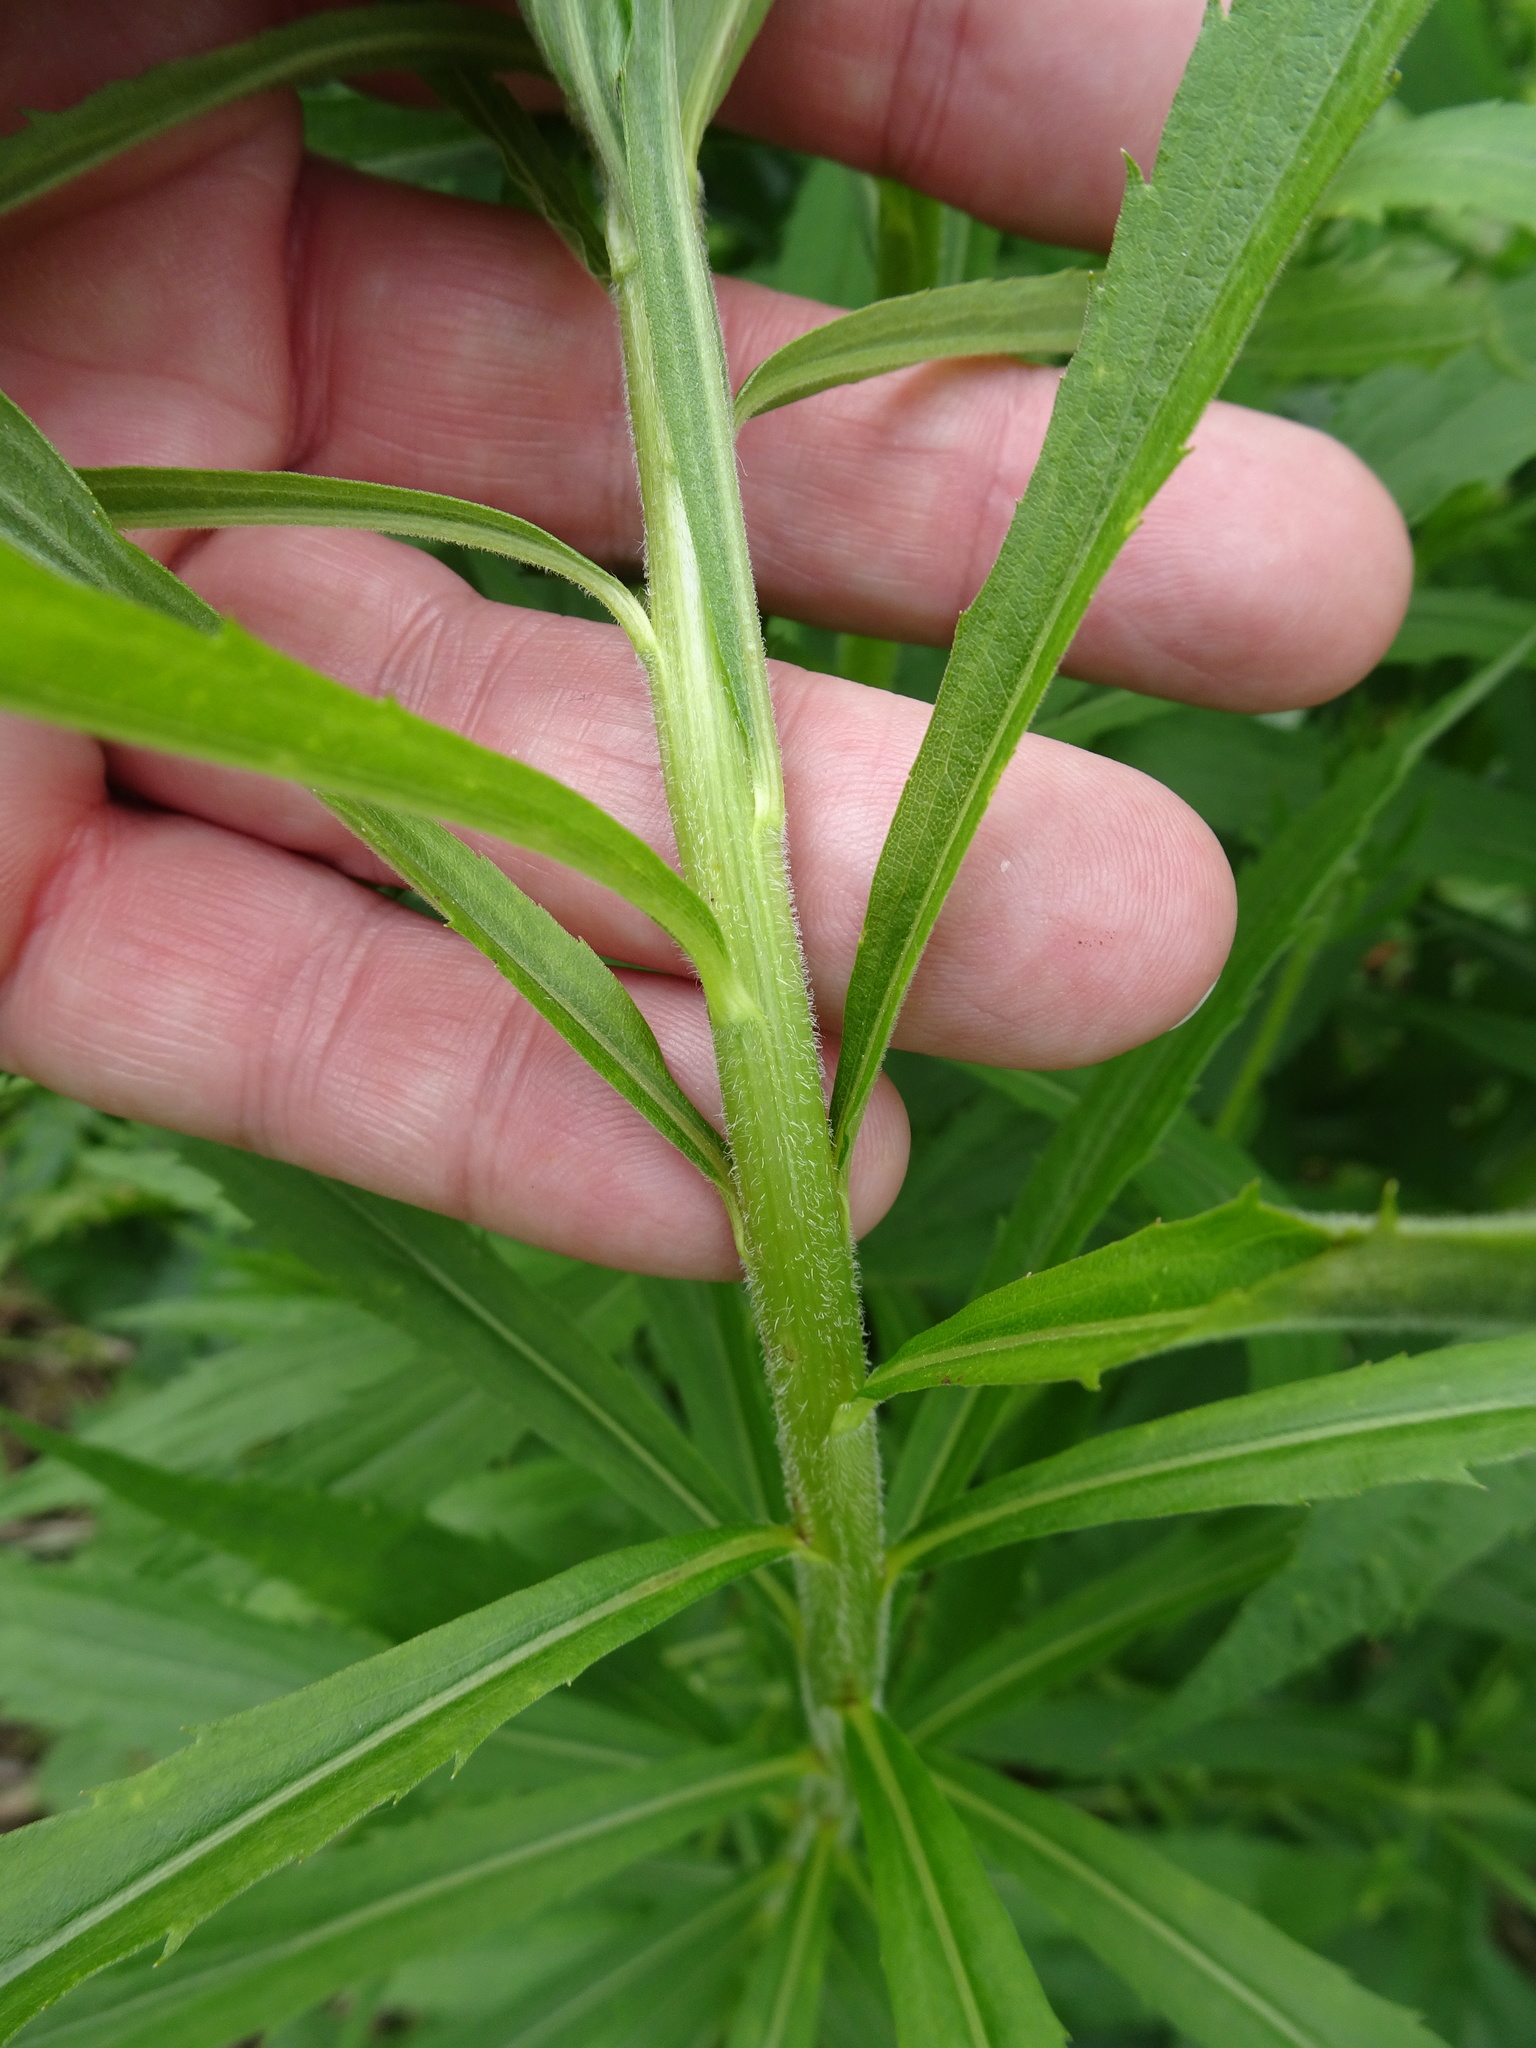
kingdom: Plantae
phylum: Tracheophyta
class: Magnoliopsida
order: Asterales
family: Asteraceae
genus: Solidago
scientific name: Solidago canadensis
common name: Canada goldenrod
